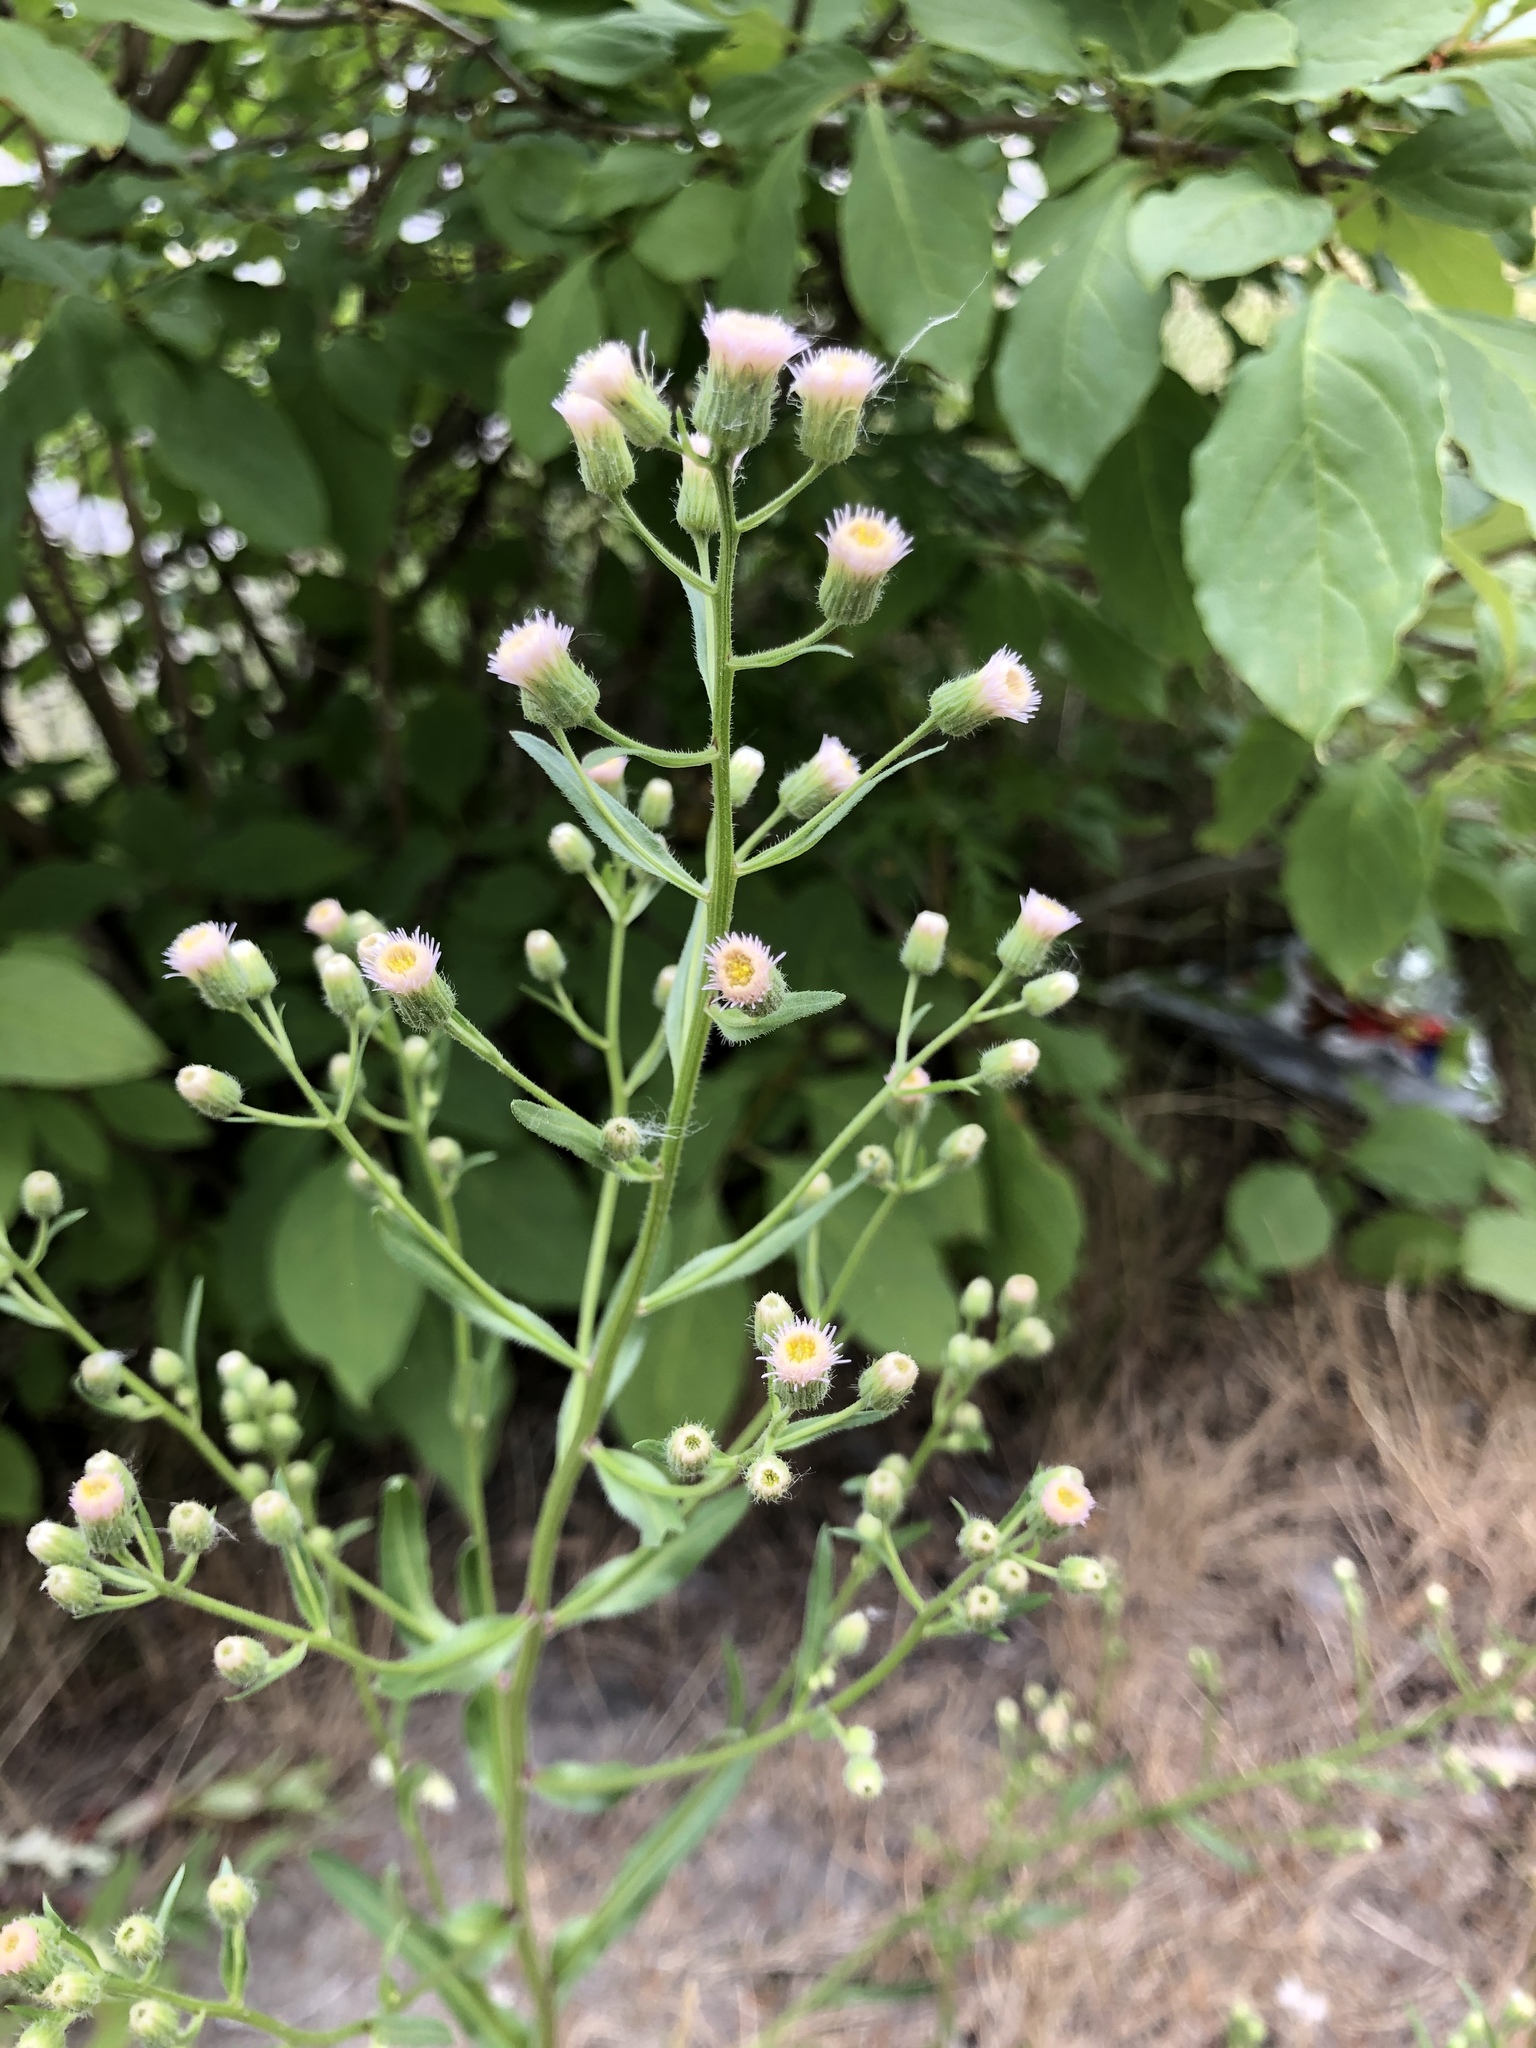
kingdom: Plantae
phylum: Tracheophyta
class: Magnoliopsida
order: Asterales
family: Asteraceae
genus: Erigeron
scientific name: Erigeron acris
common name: Blue fleabane
